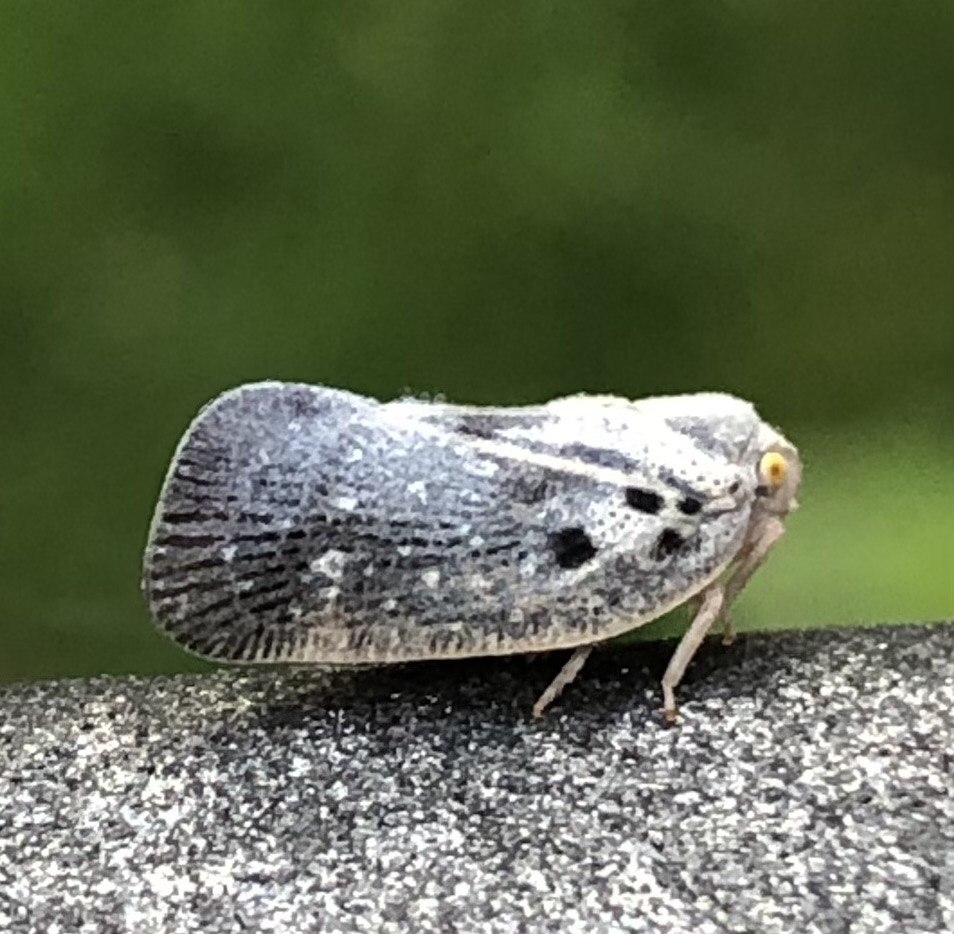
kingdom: Animalia
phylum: Arthropoda
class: Insecta
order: Hemiptera
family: Flatidae
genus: Metcalfa
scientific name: Metcalfa pruinosa
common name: Citrus flatid planthopper
